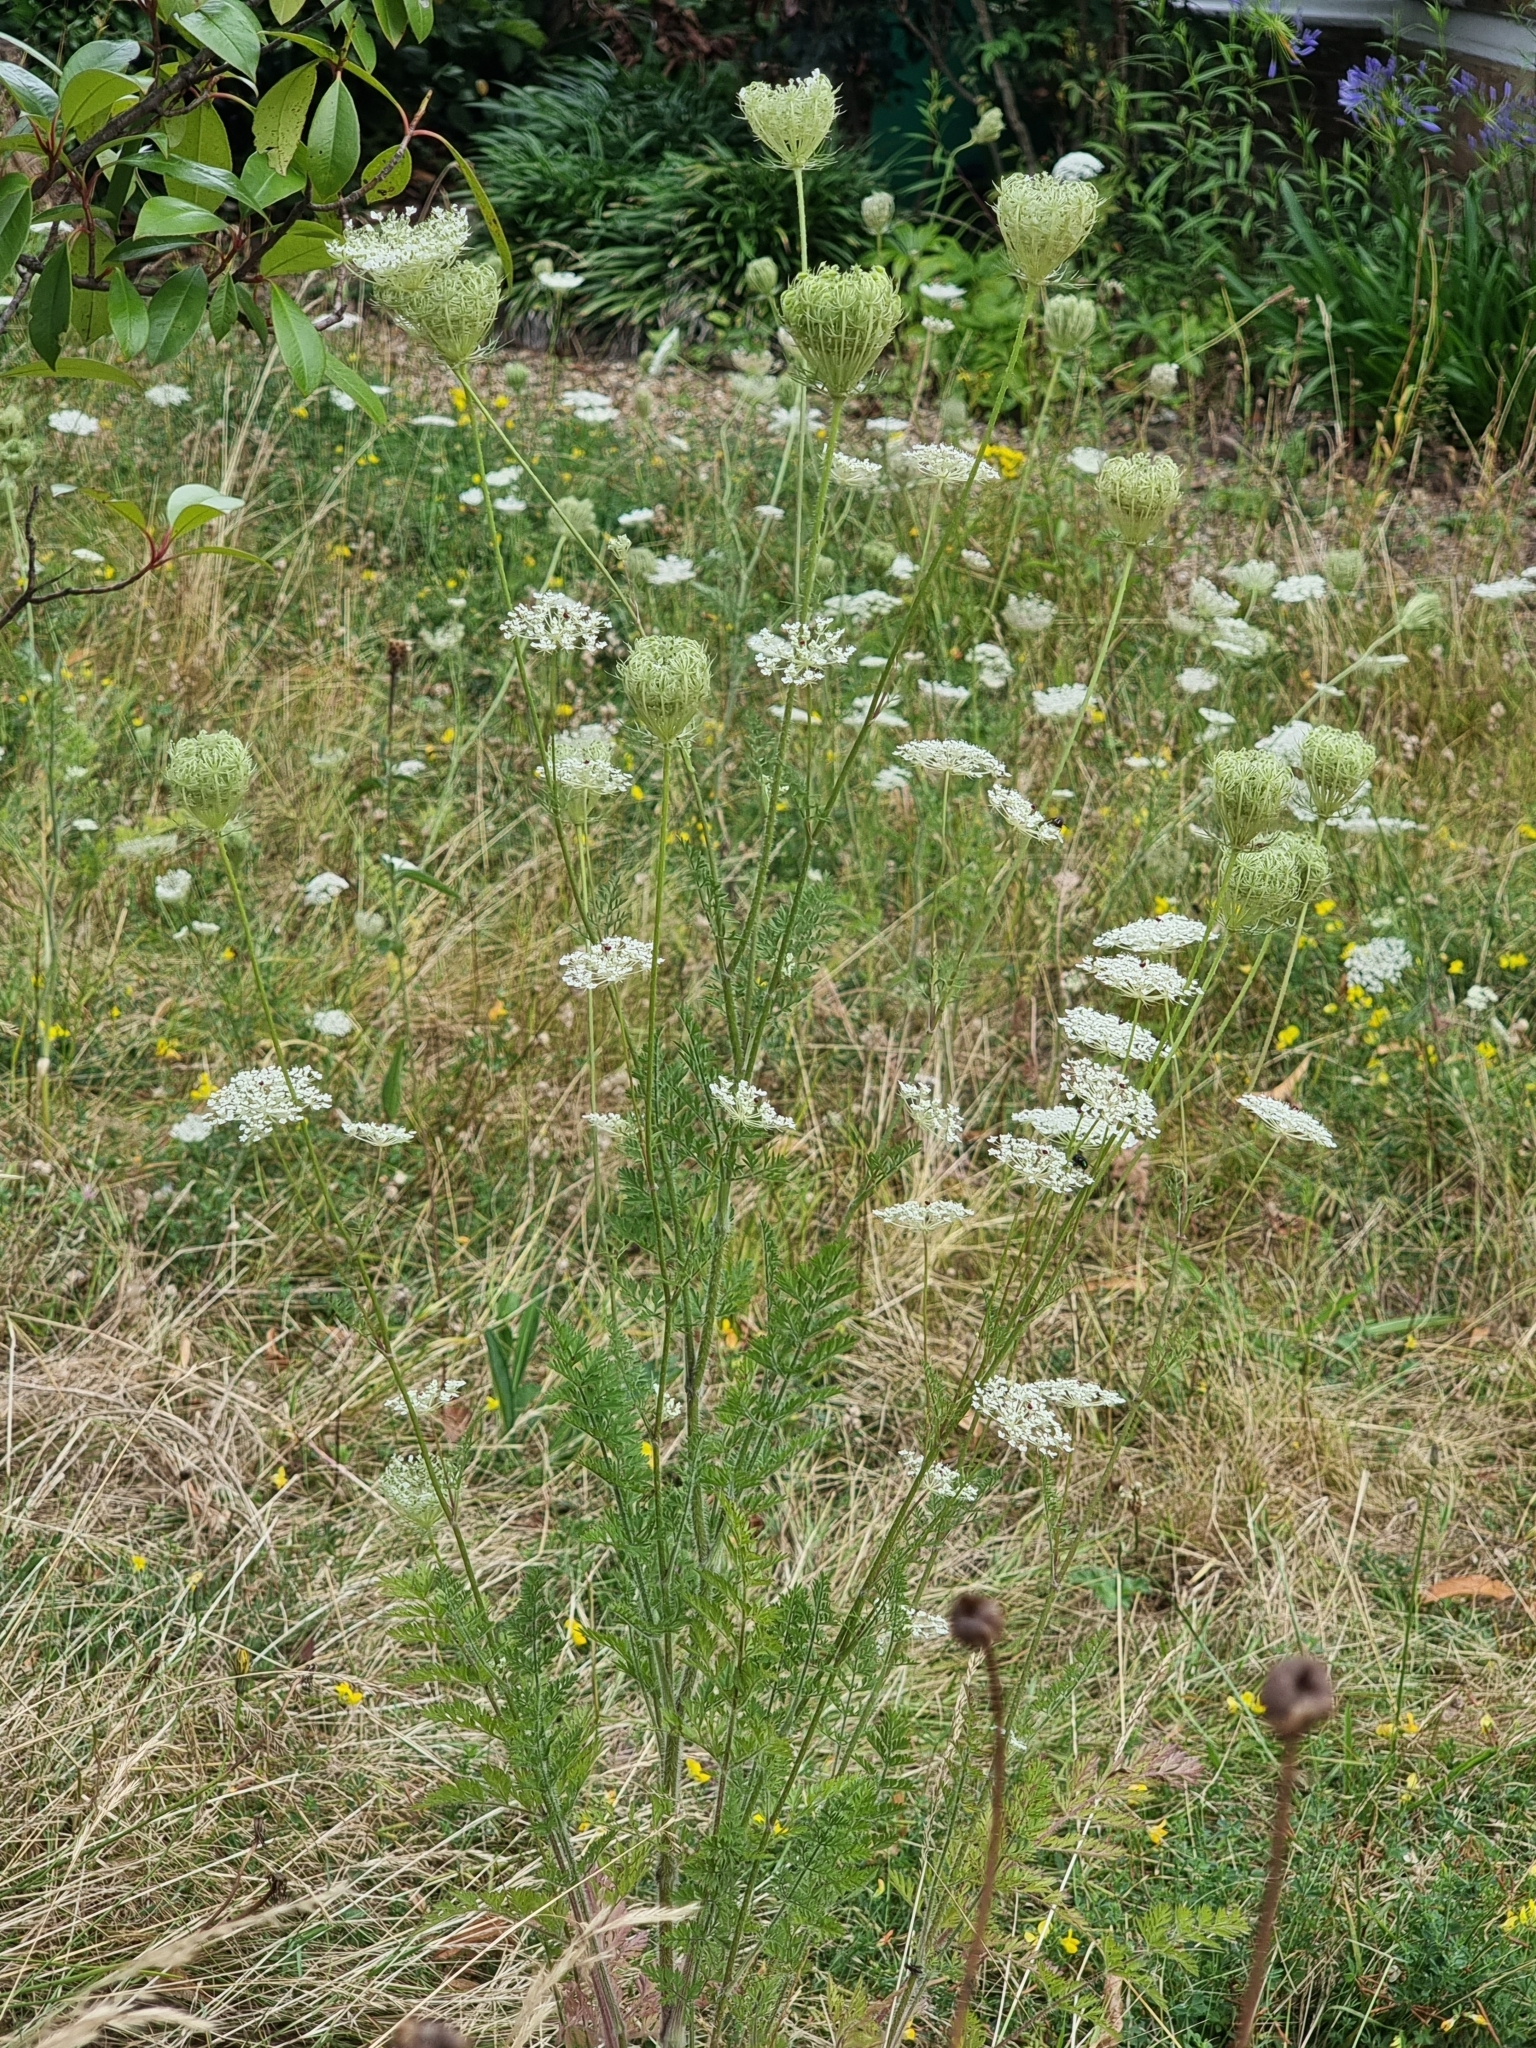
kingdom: Plantae
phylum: Tracheophyta
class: Magnoliopsida
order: Apiales
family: Apiaceae
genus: Daucus
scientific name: Daucus carota
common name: Wild carrot
